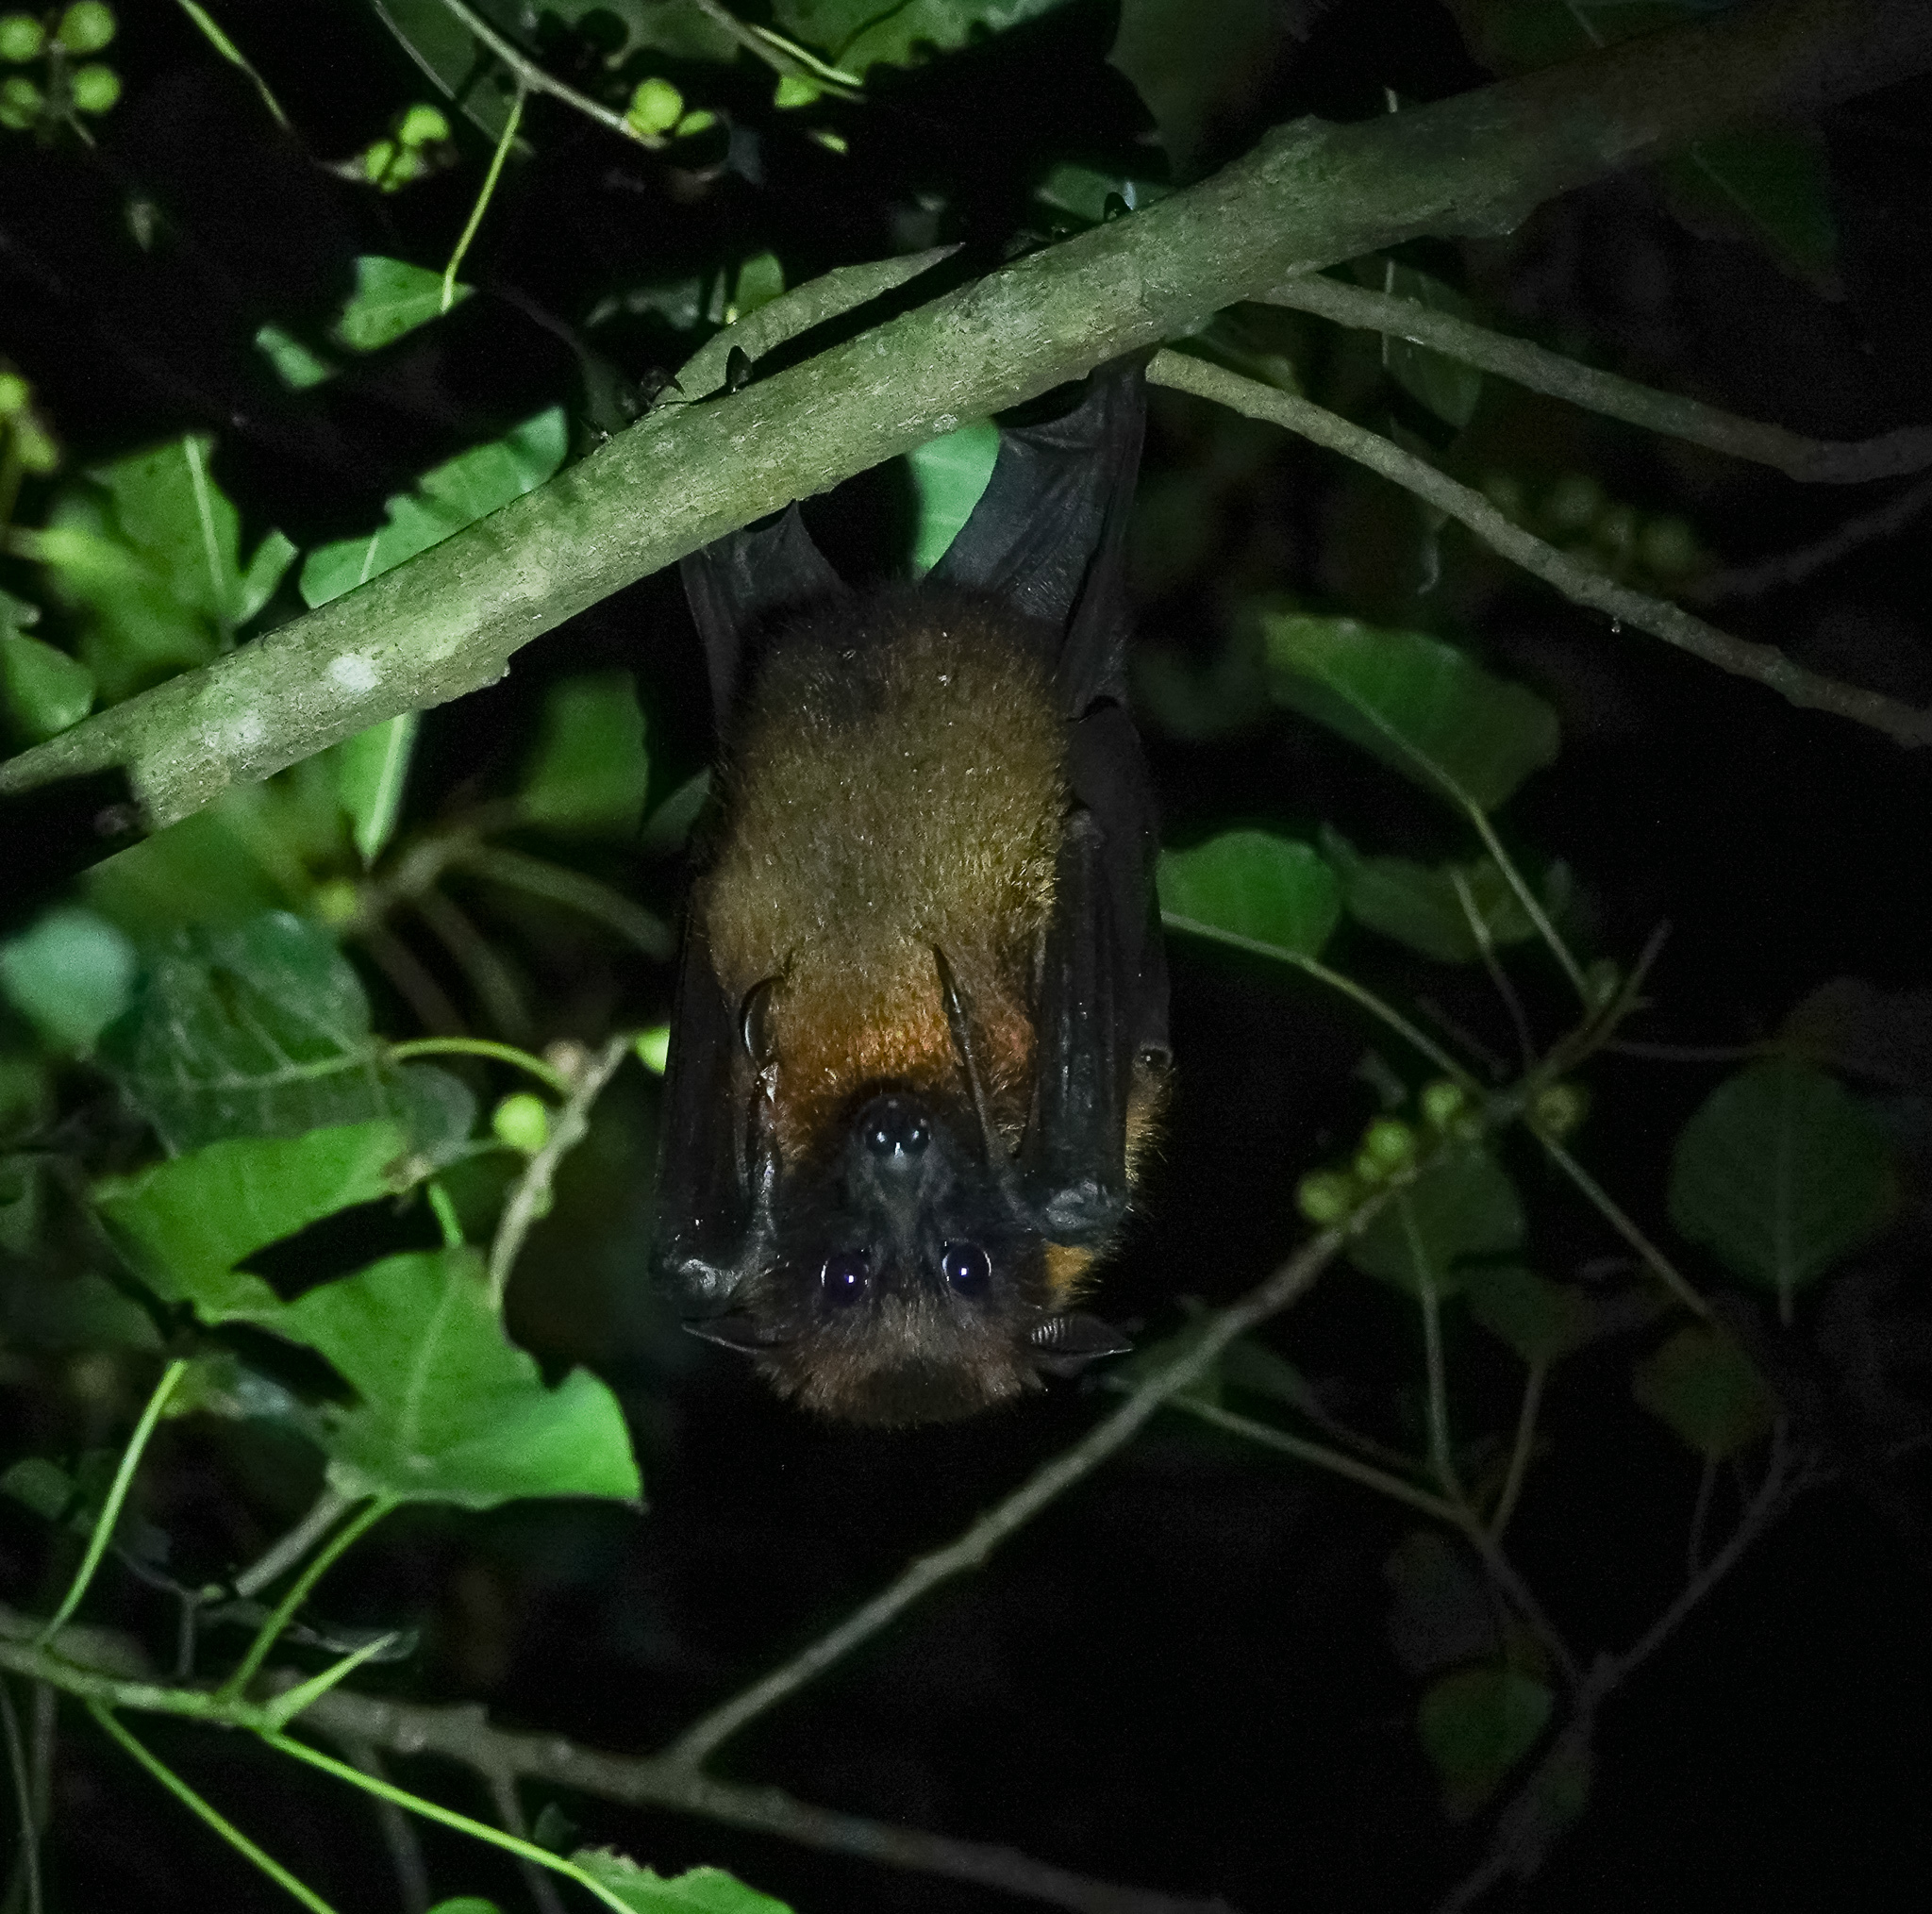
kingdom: Animalia
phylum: Chordata
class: Mammalia
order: Chiroptera
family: Pteropodidae
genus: Pteropus
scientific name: Pteropus vampyrus
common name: Large flying fox
